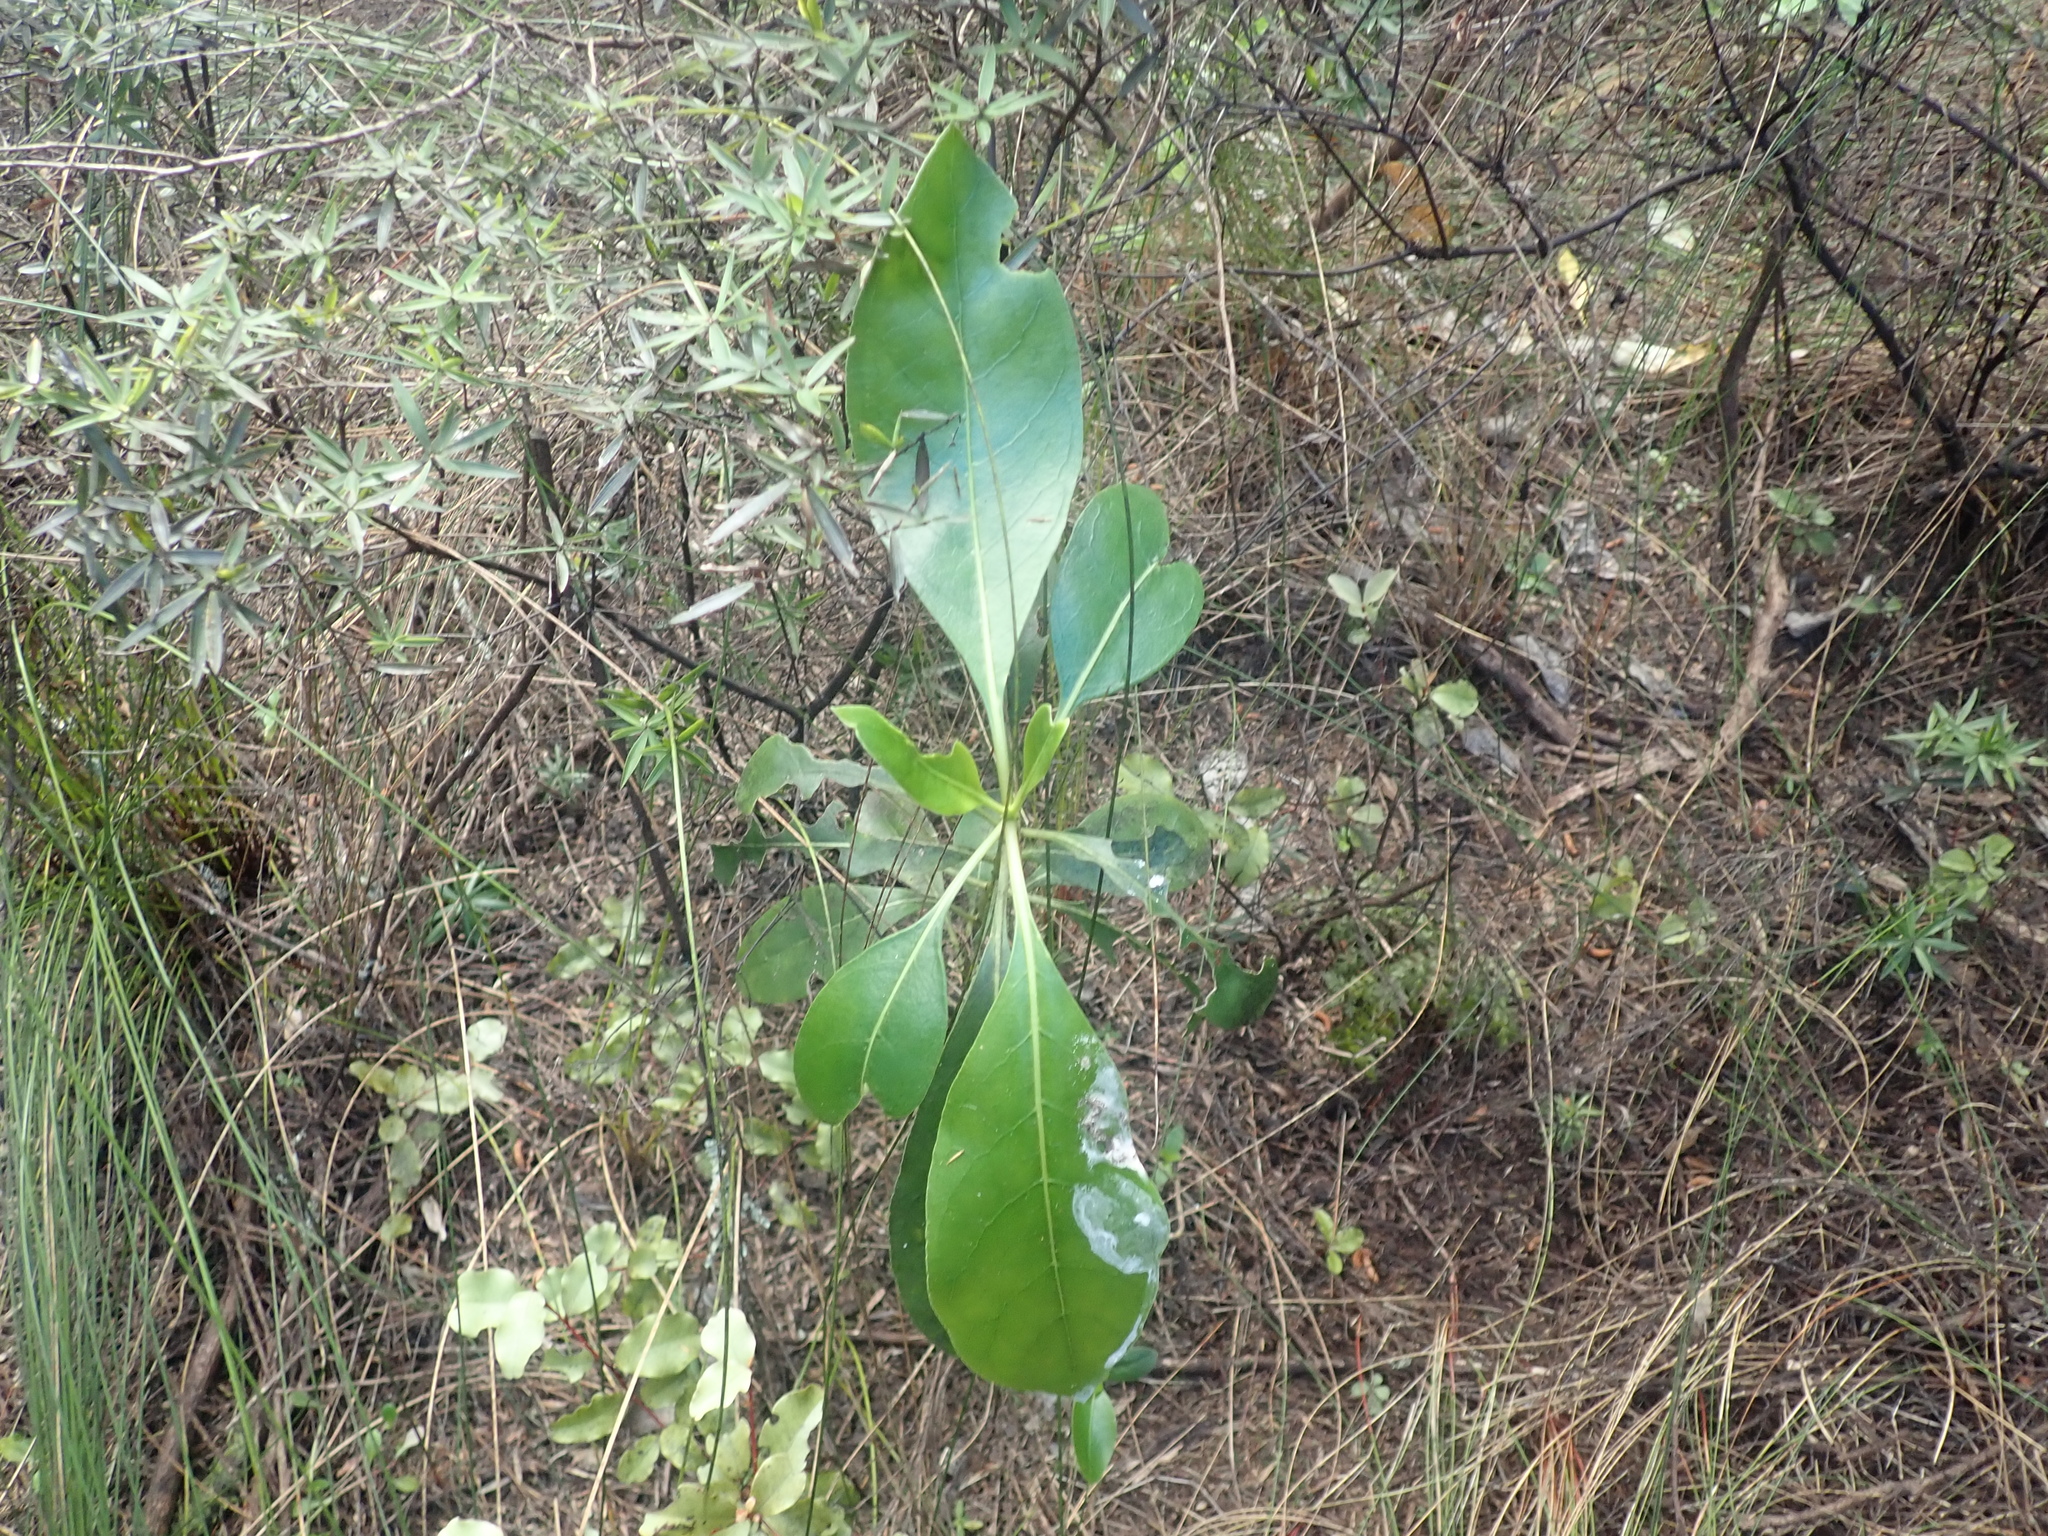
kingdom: Plantae
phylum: Tracheophyta
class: Magnoliopsida
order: Gentianales
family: Rubiaceae
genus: Coprosma
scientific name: Coprosma lucida
